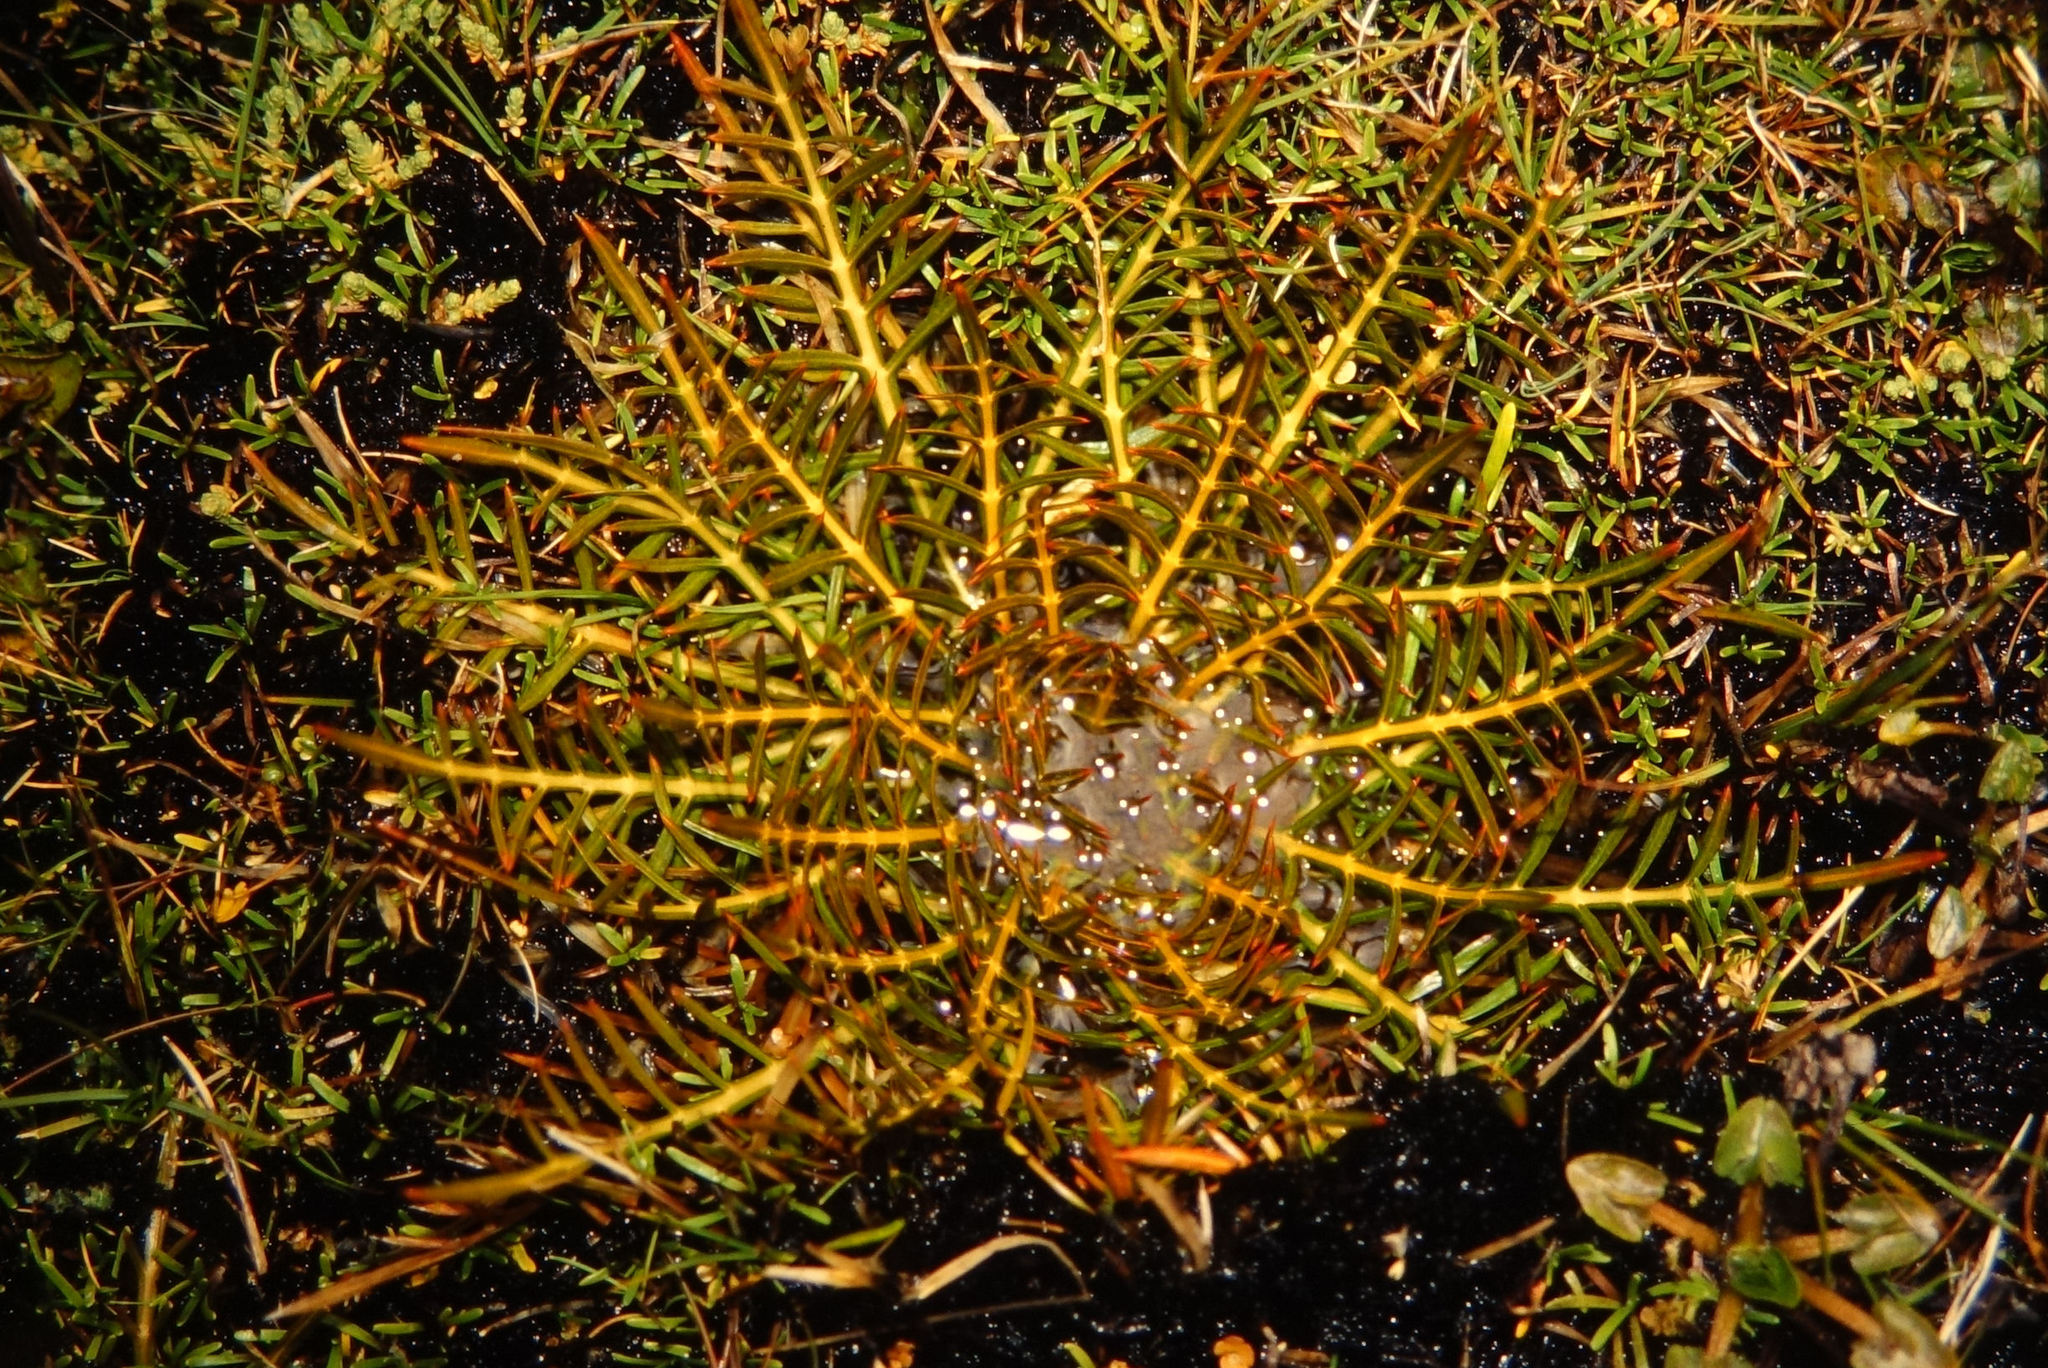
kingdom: Plantae
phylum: Tracheophyta
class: Magnoliopsida
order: Apiales
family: Apiaceae
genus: Aciphylla
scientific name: Aciphylla pinnatifida
